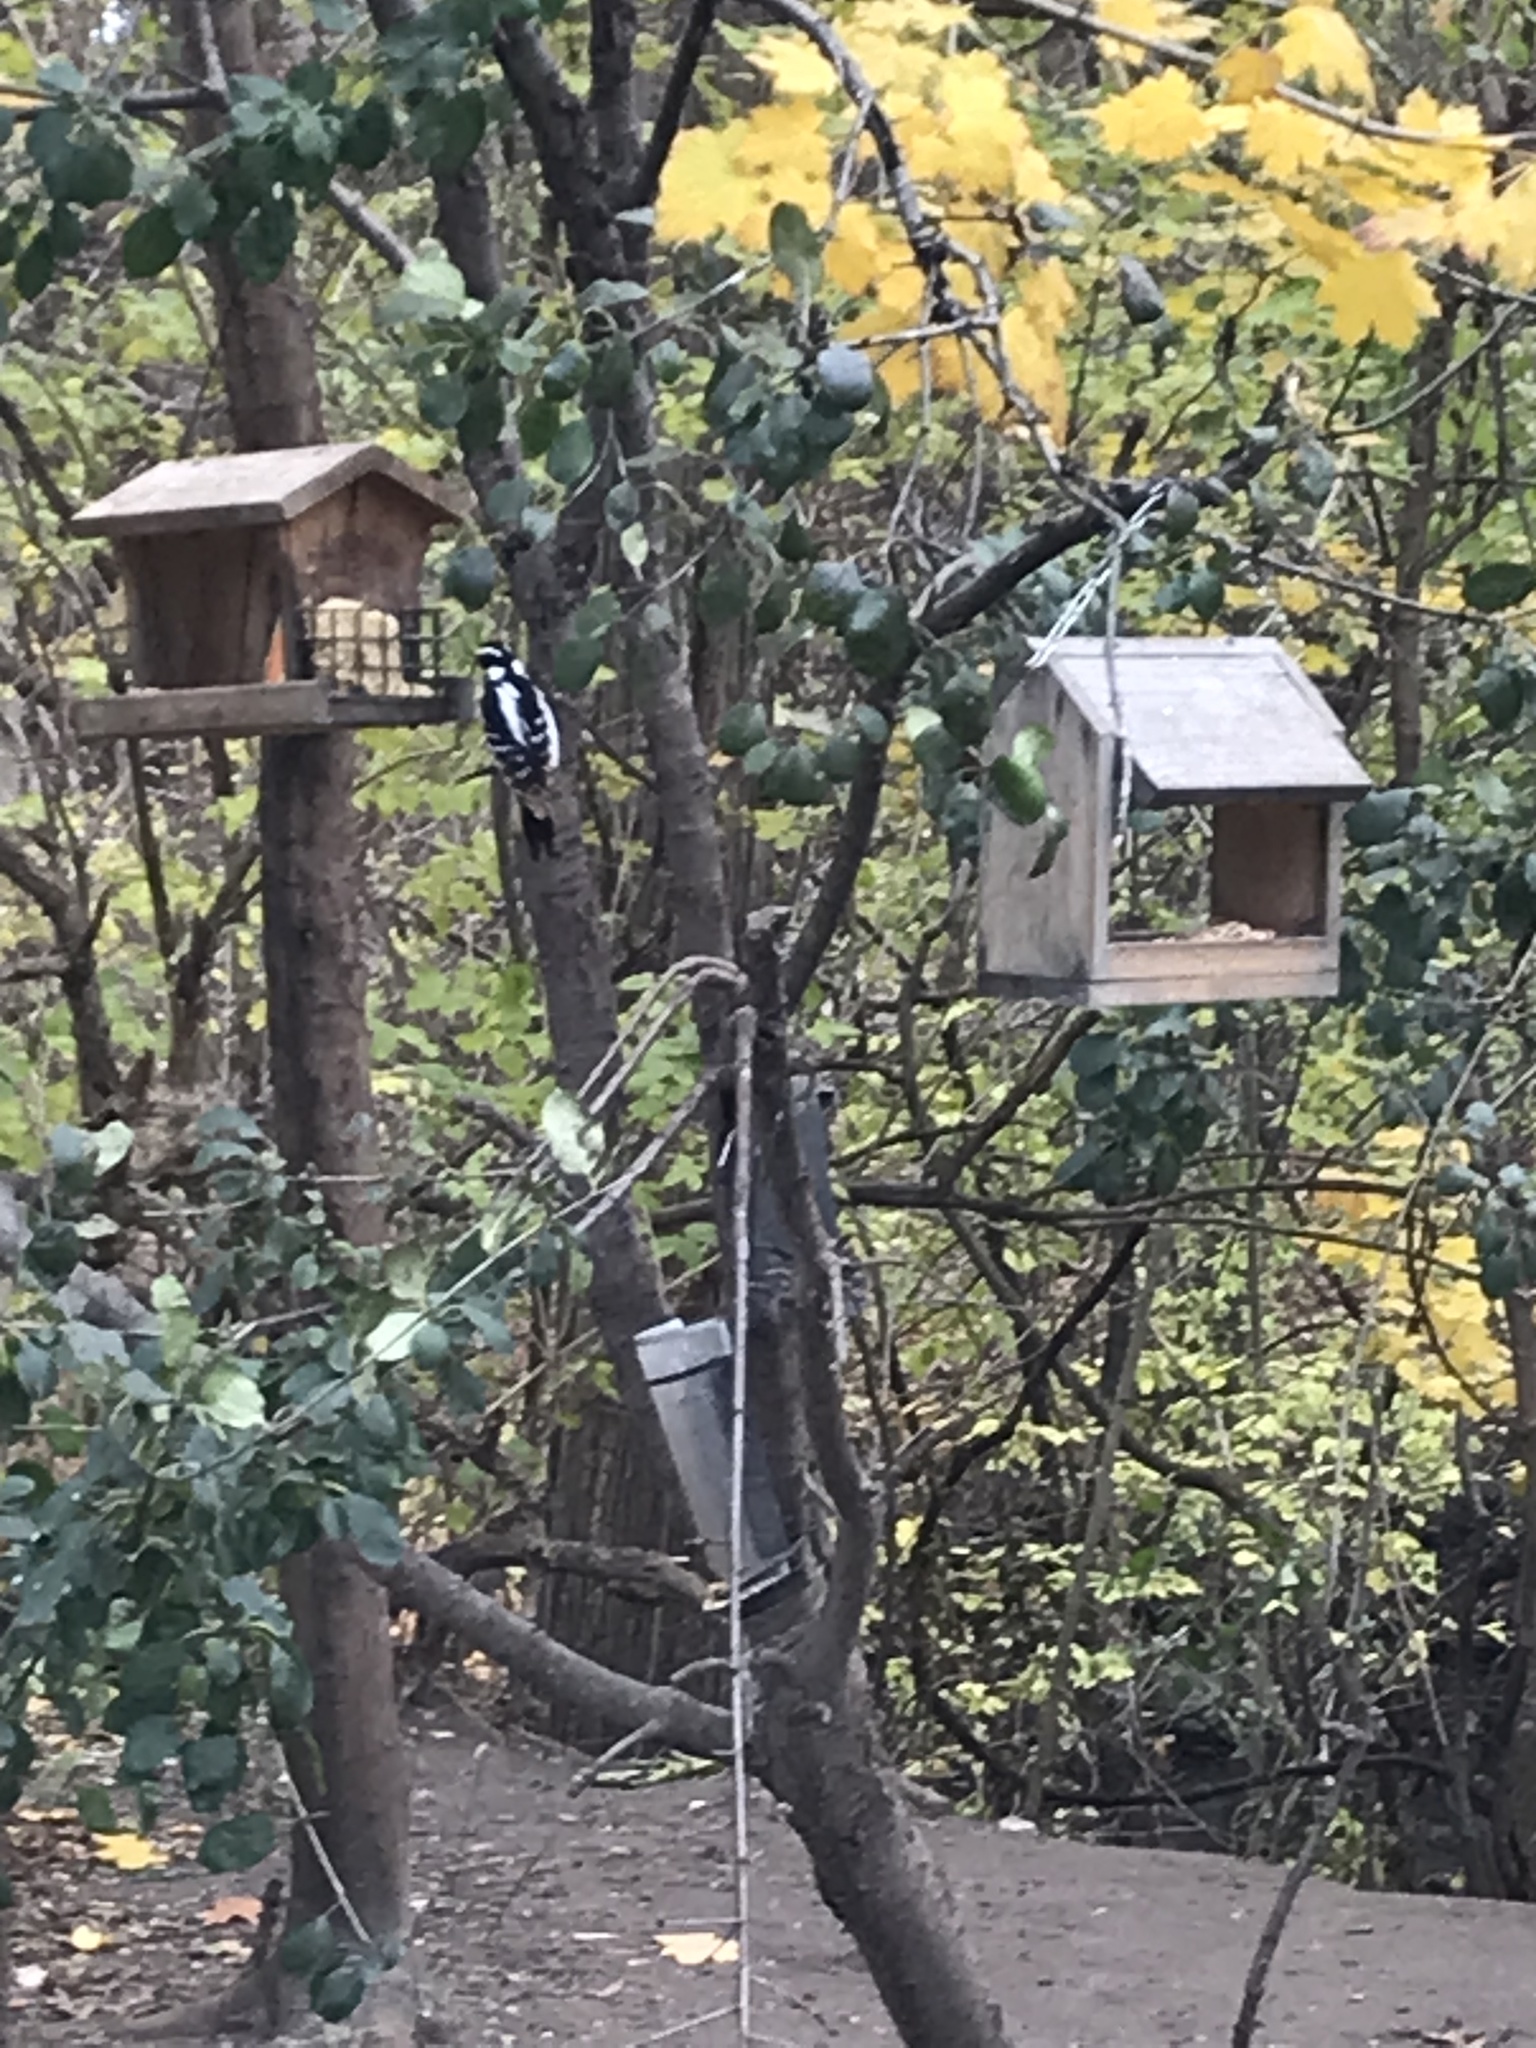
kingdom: Animalia
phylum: Chordata
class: Aves
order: Piciformes
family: Picidae
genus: Leuconotopicus
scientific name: Leuconotopicus villosus
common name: Hairy woodpecker
